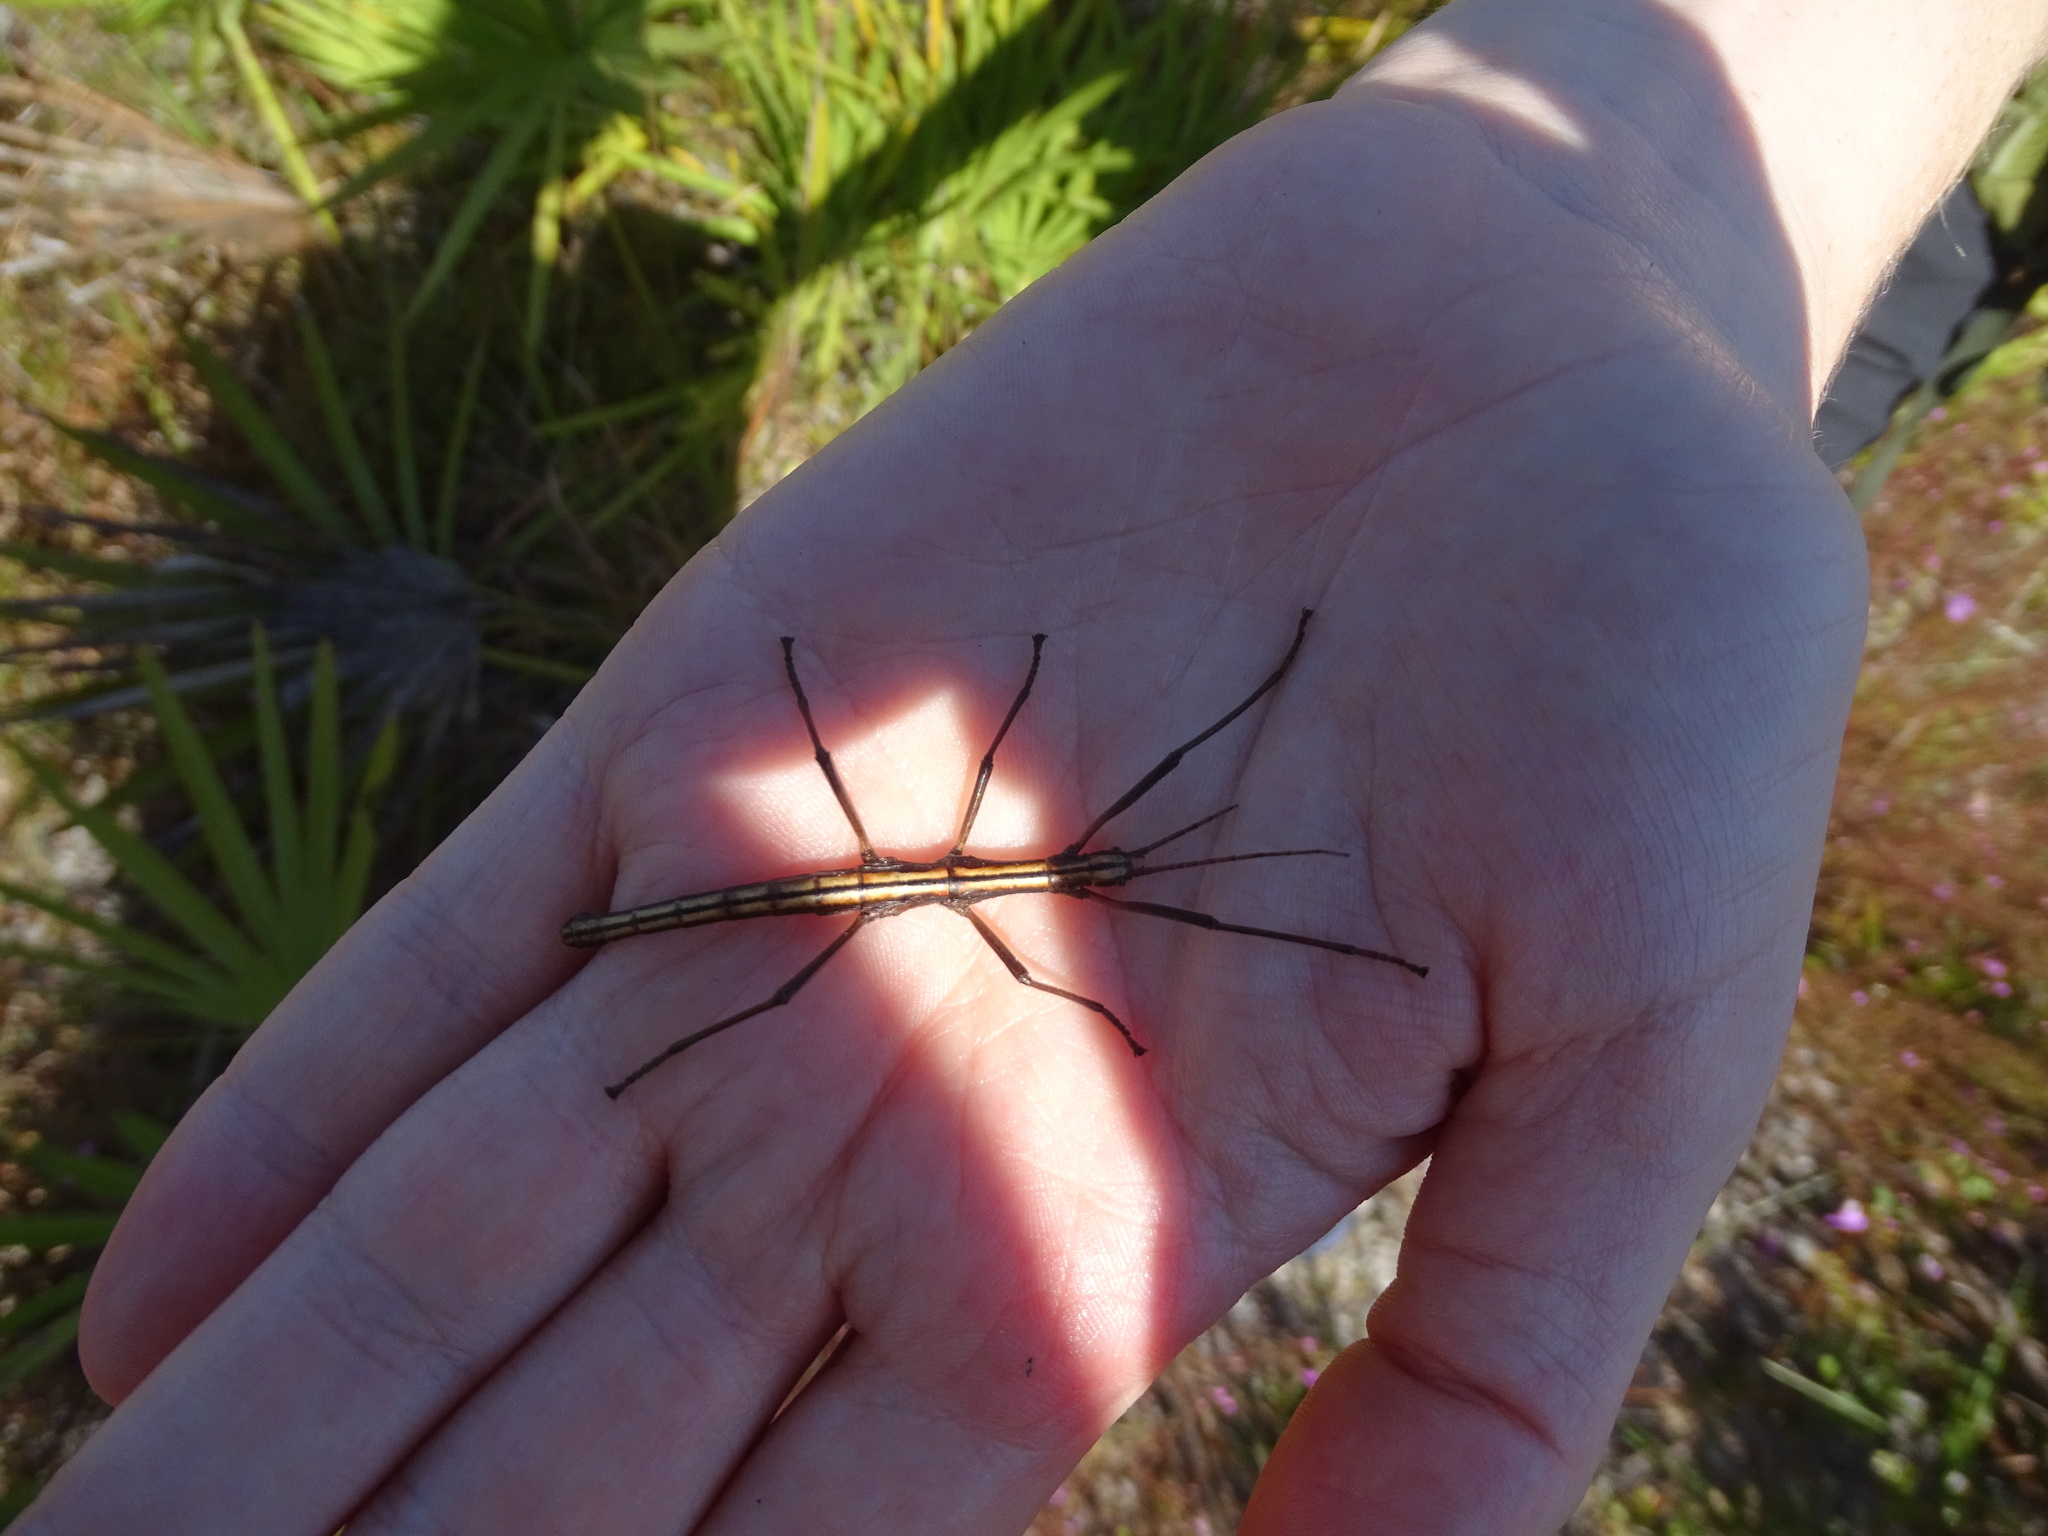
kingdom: Animalia
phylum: Arthropoda
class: Insecta
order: Phasmida
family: Pseudophasmatidae
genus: Anisomorpha
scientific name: Anisomorpha buprestoides
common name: Florida stick insect
